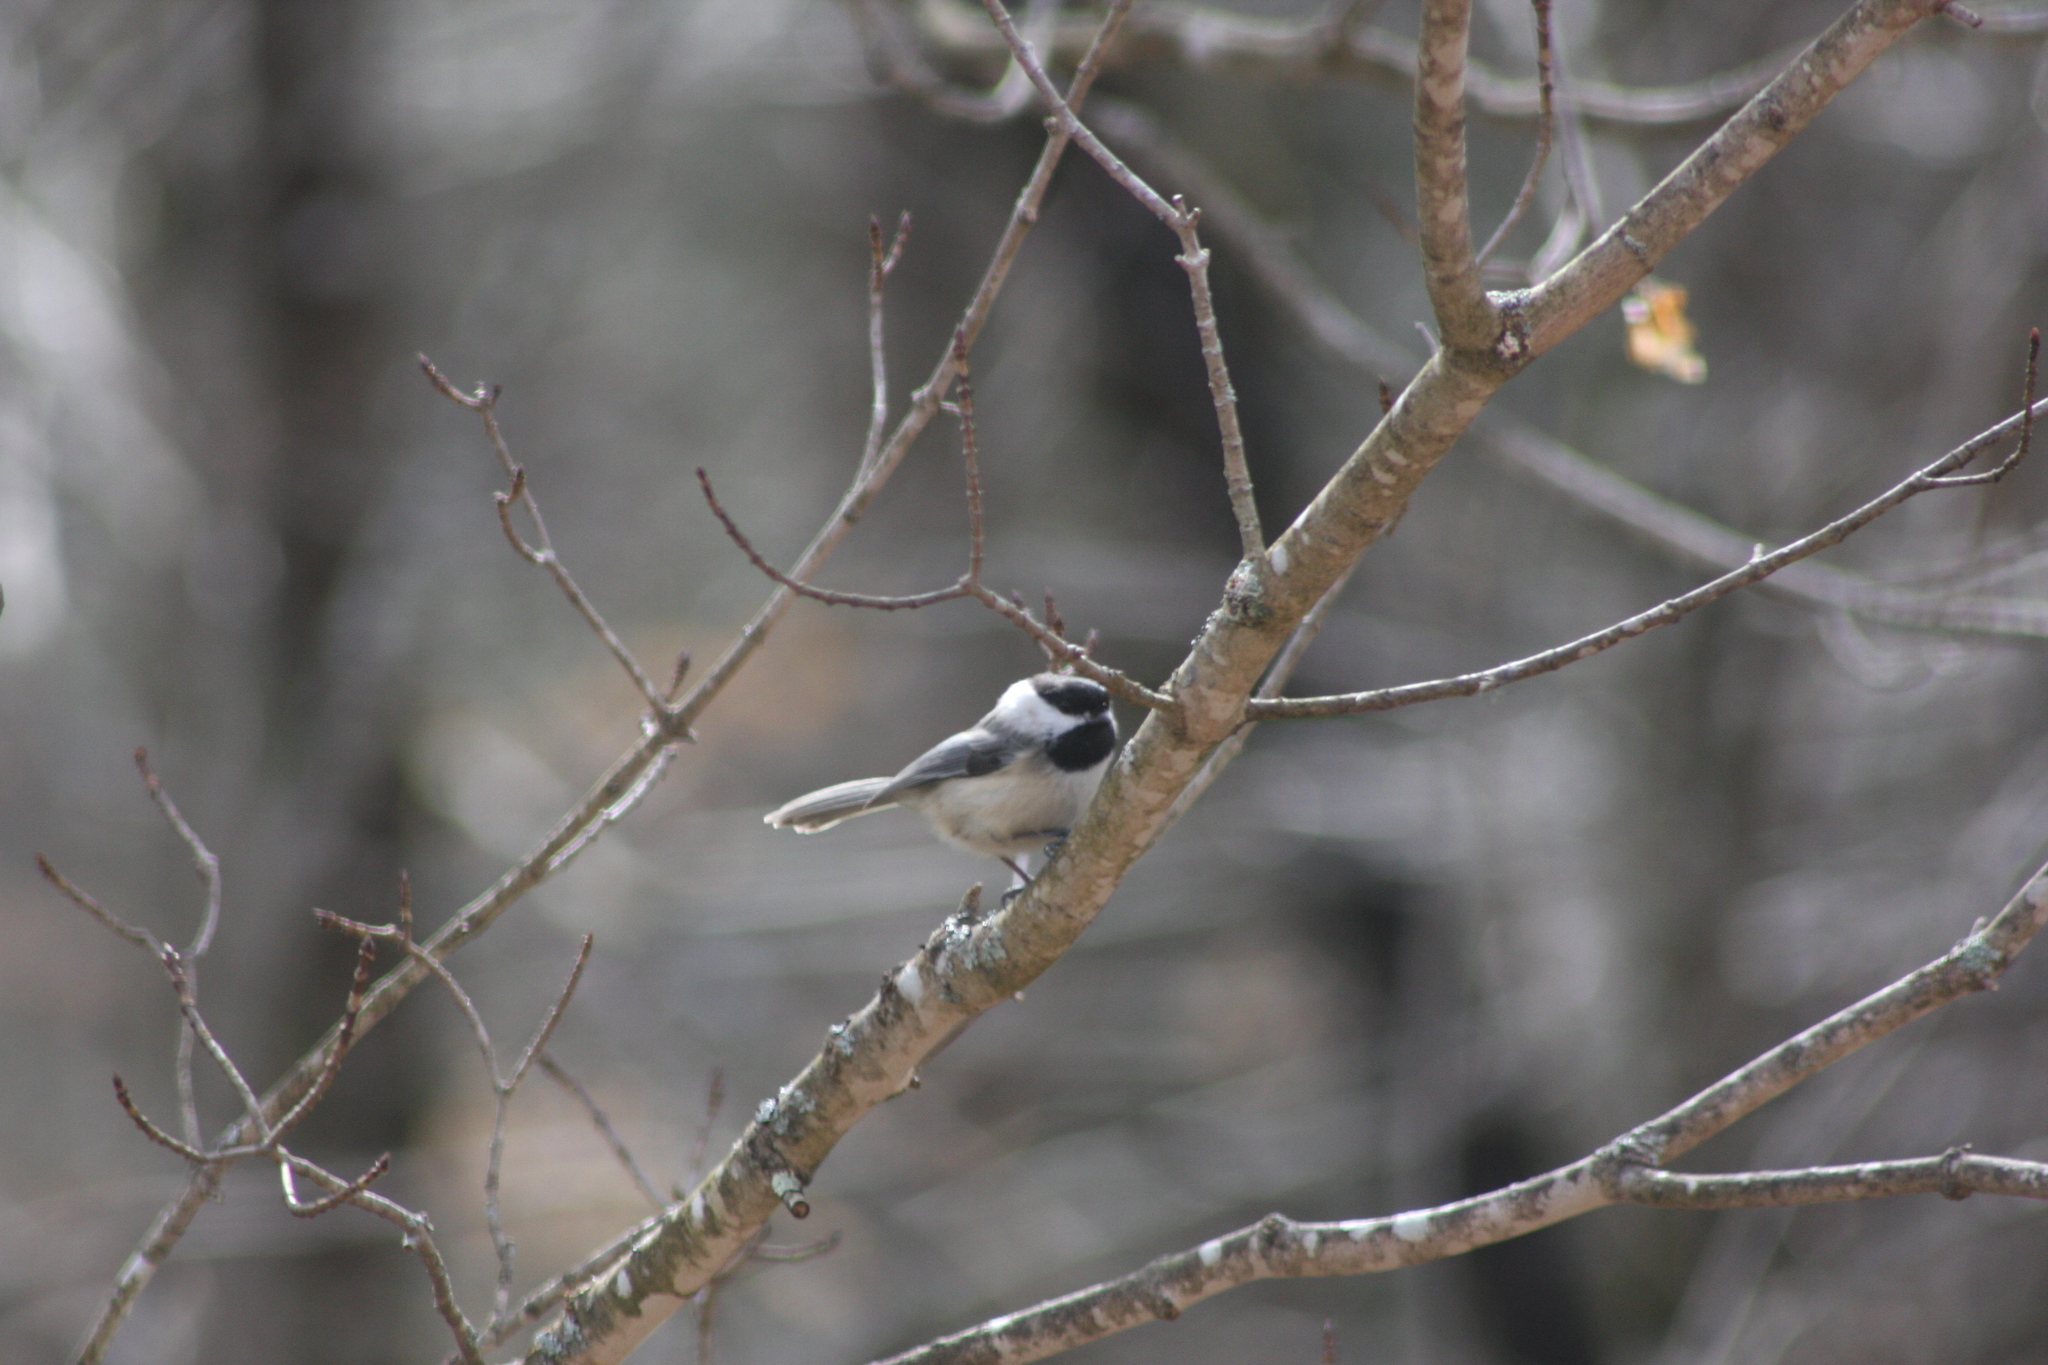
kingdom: Animalia
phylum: Chordata
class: Aves
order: Passeriformes
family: Paridae
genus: Poecile
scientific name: Poecile atricapillus
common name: Black-capped chickadee
